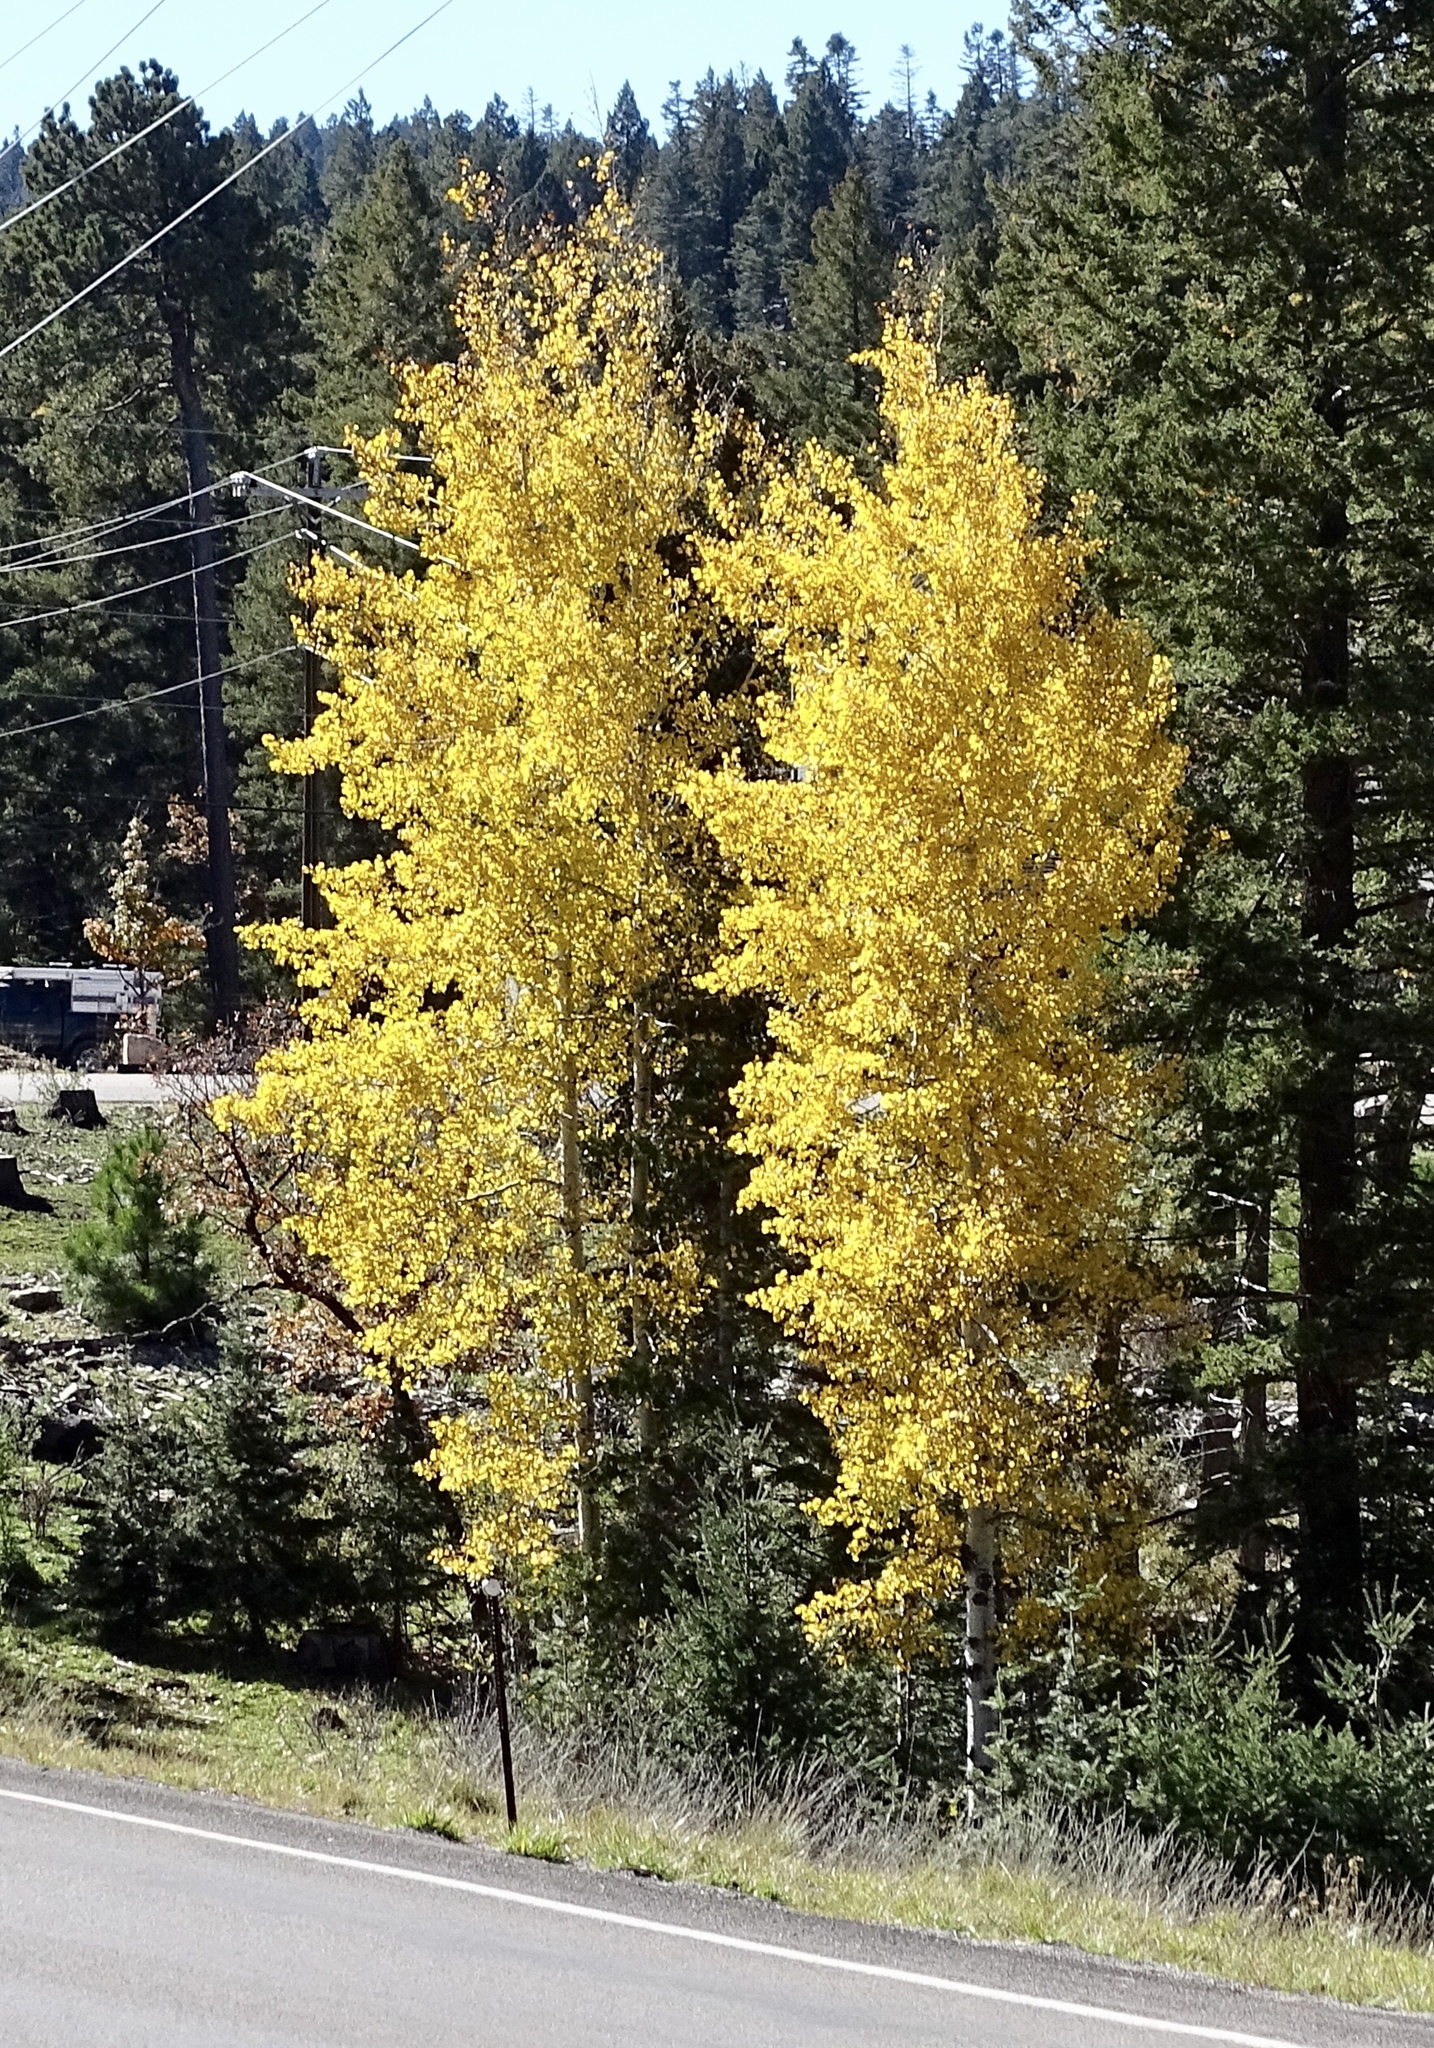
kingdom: Plantae
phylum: Tracheophyta
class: Magnoliopsida
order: Malpighiales
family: Salicaceae
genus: Populus
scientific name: Populus tremuloides
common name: Quaking aspen
